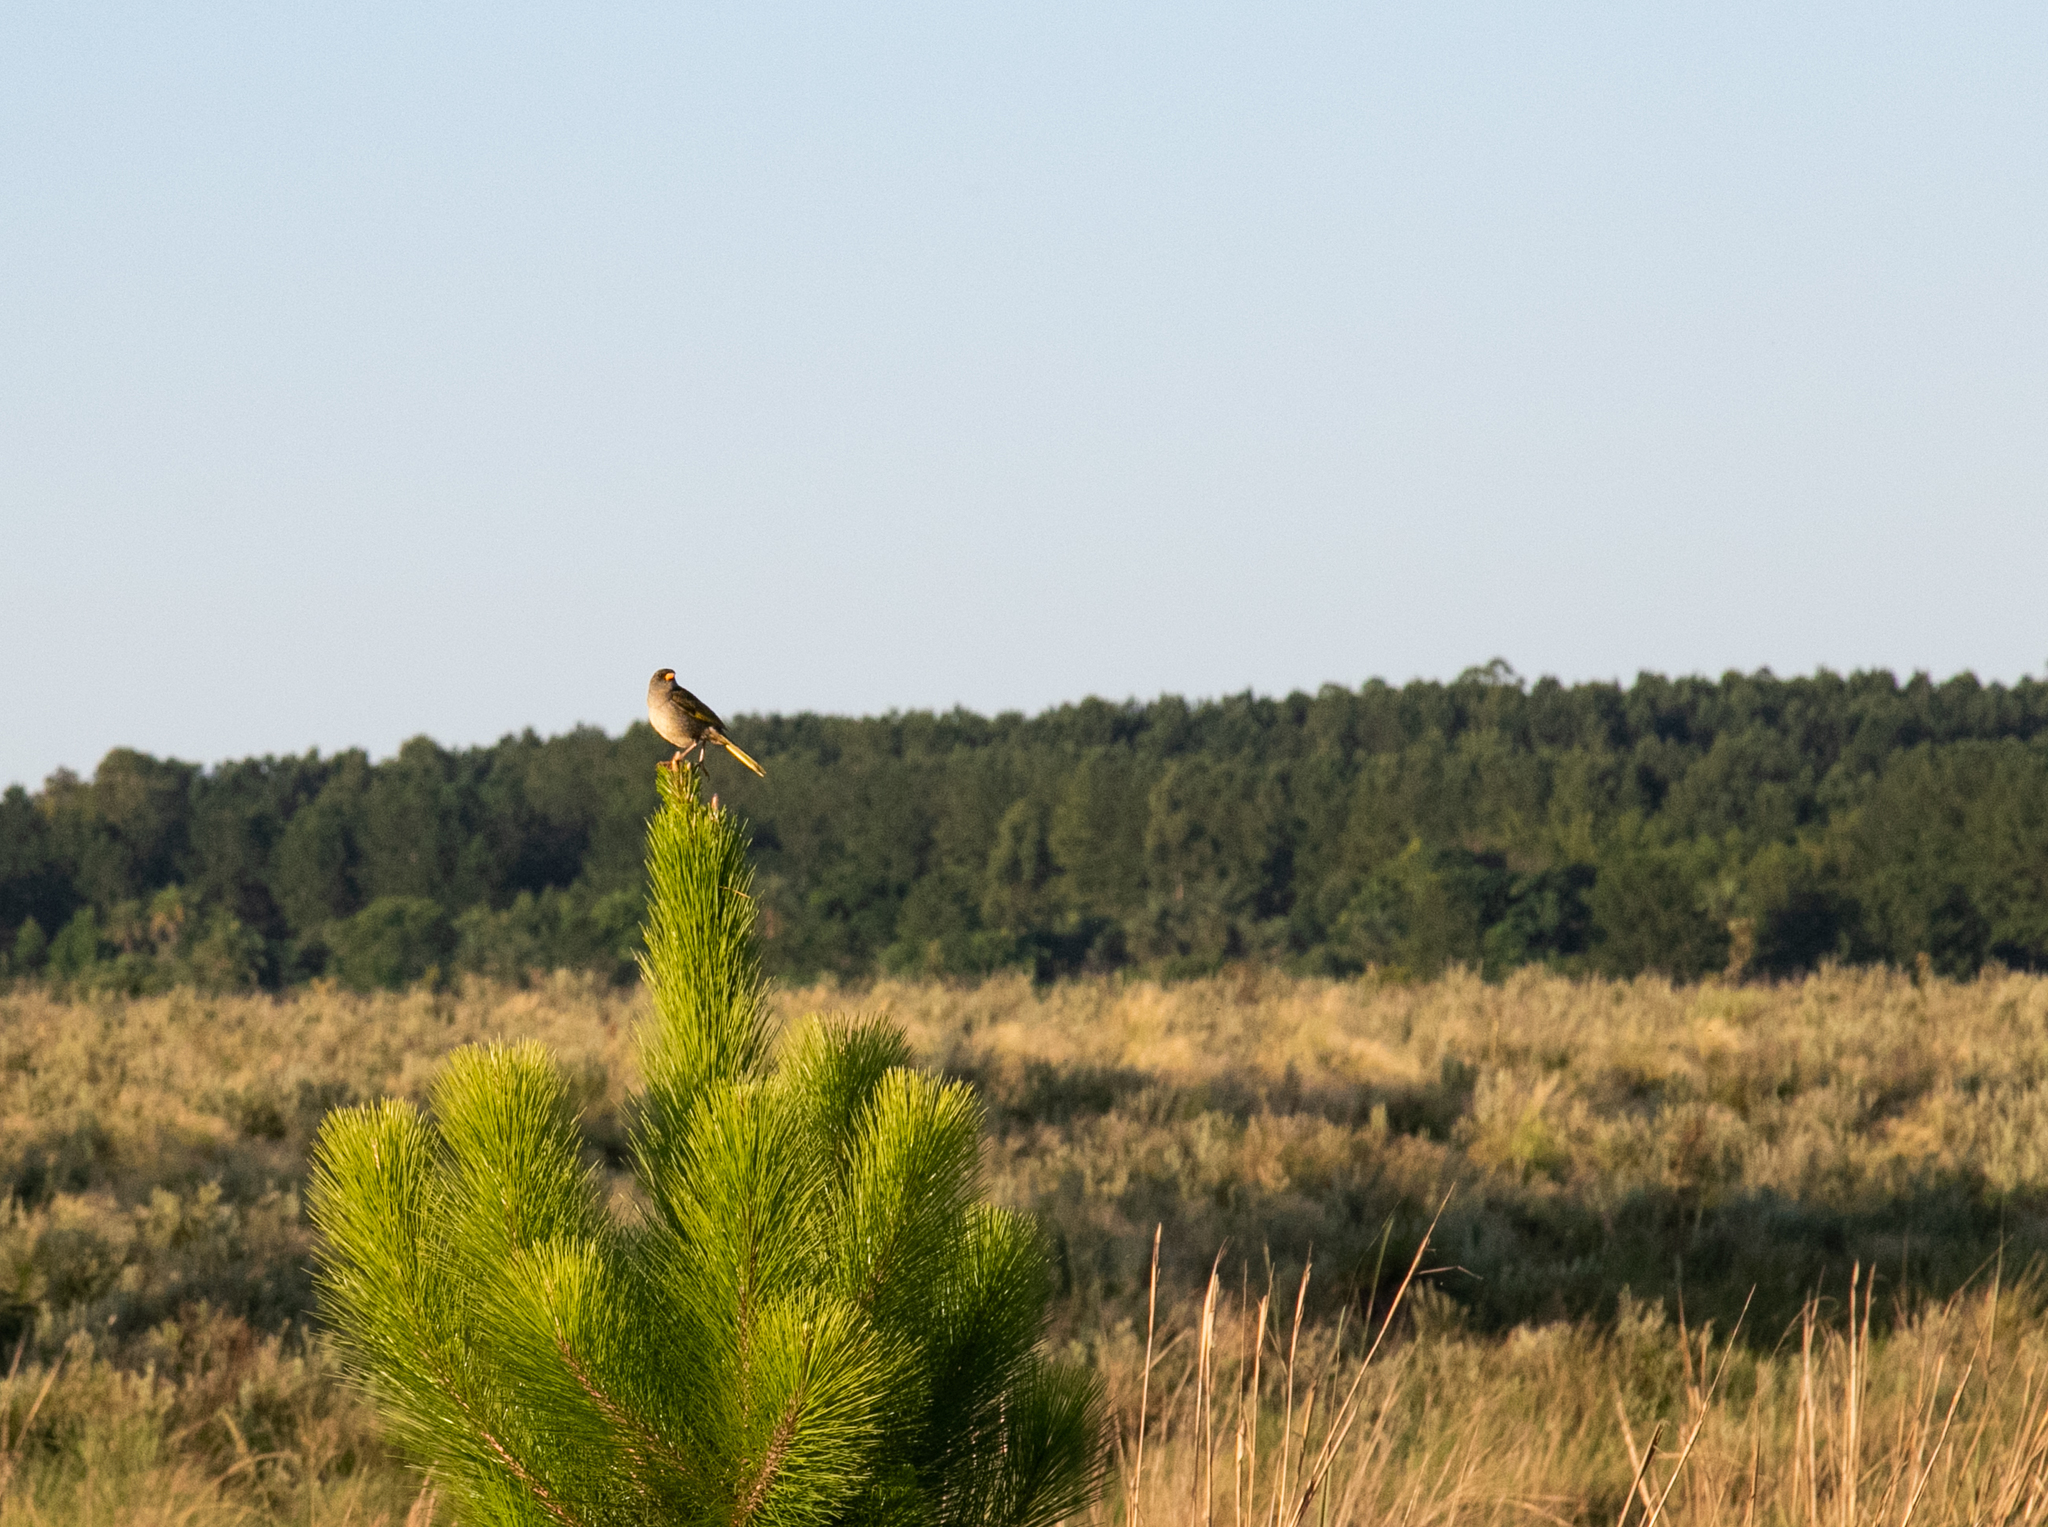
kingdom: Animalia
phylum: Chordata
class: Aves
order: Passeriformes
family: Thraupidae
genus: Embernagra
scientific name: Embernagra platensis
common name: Pampa finch
